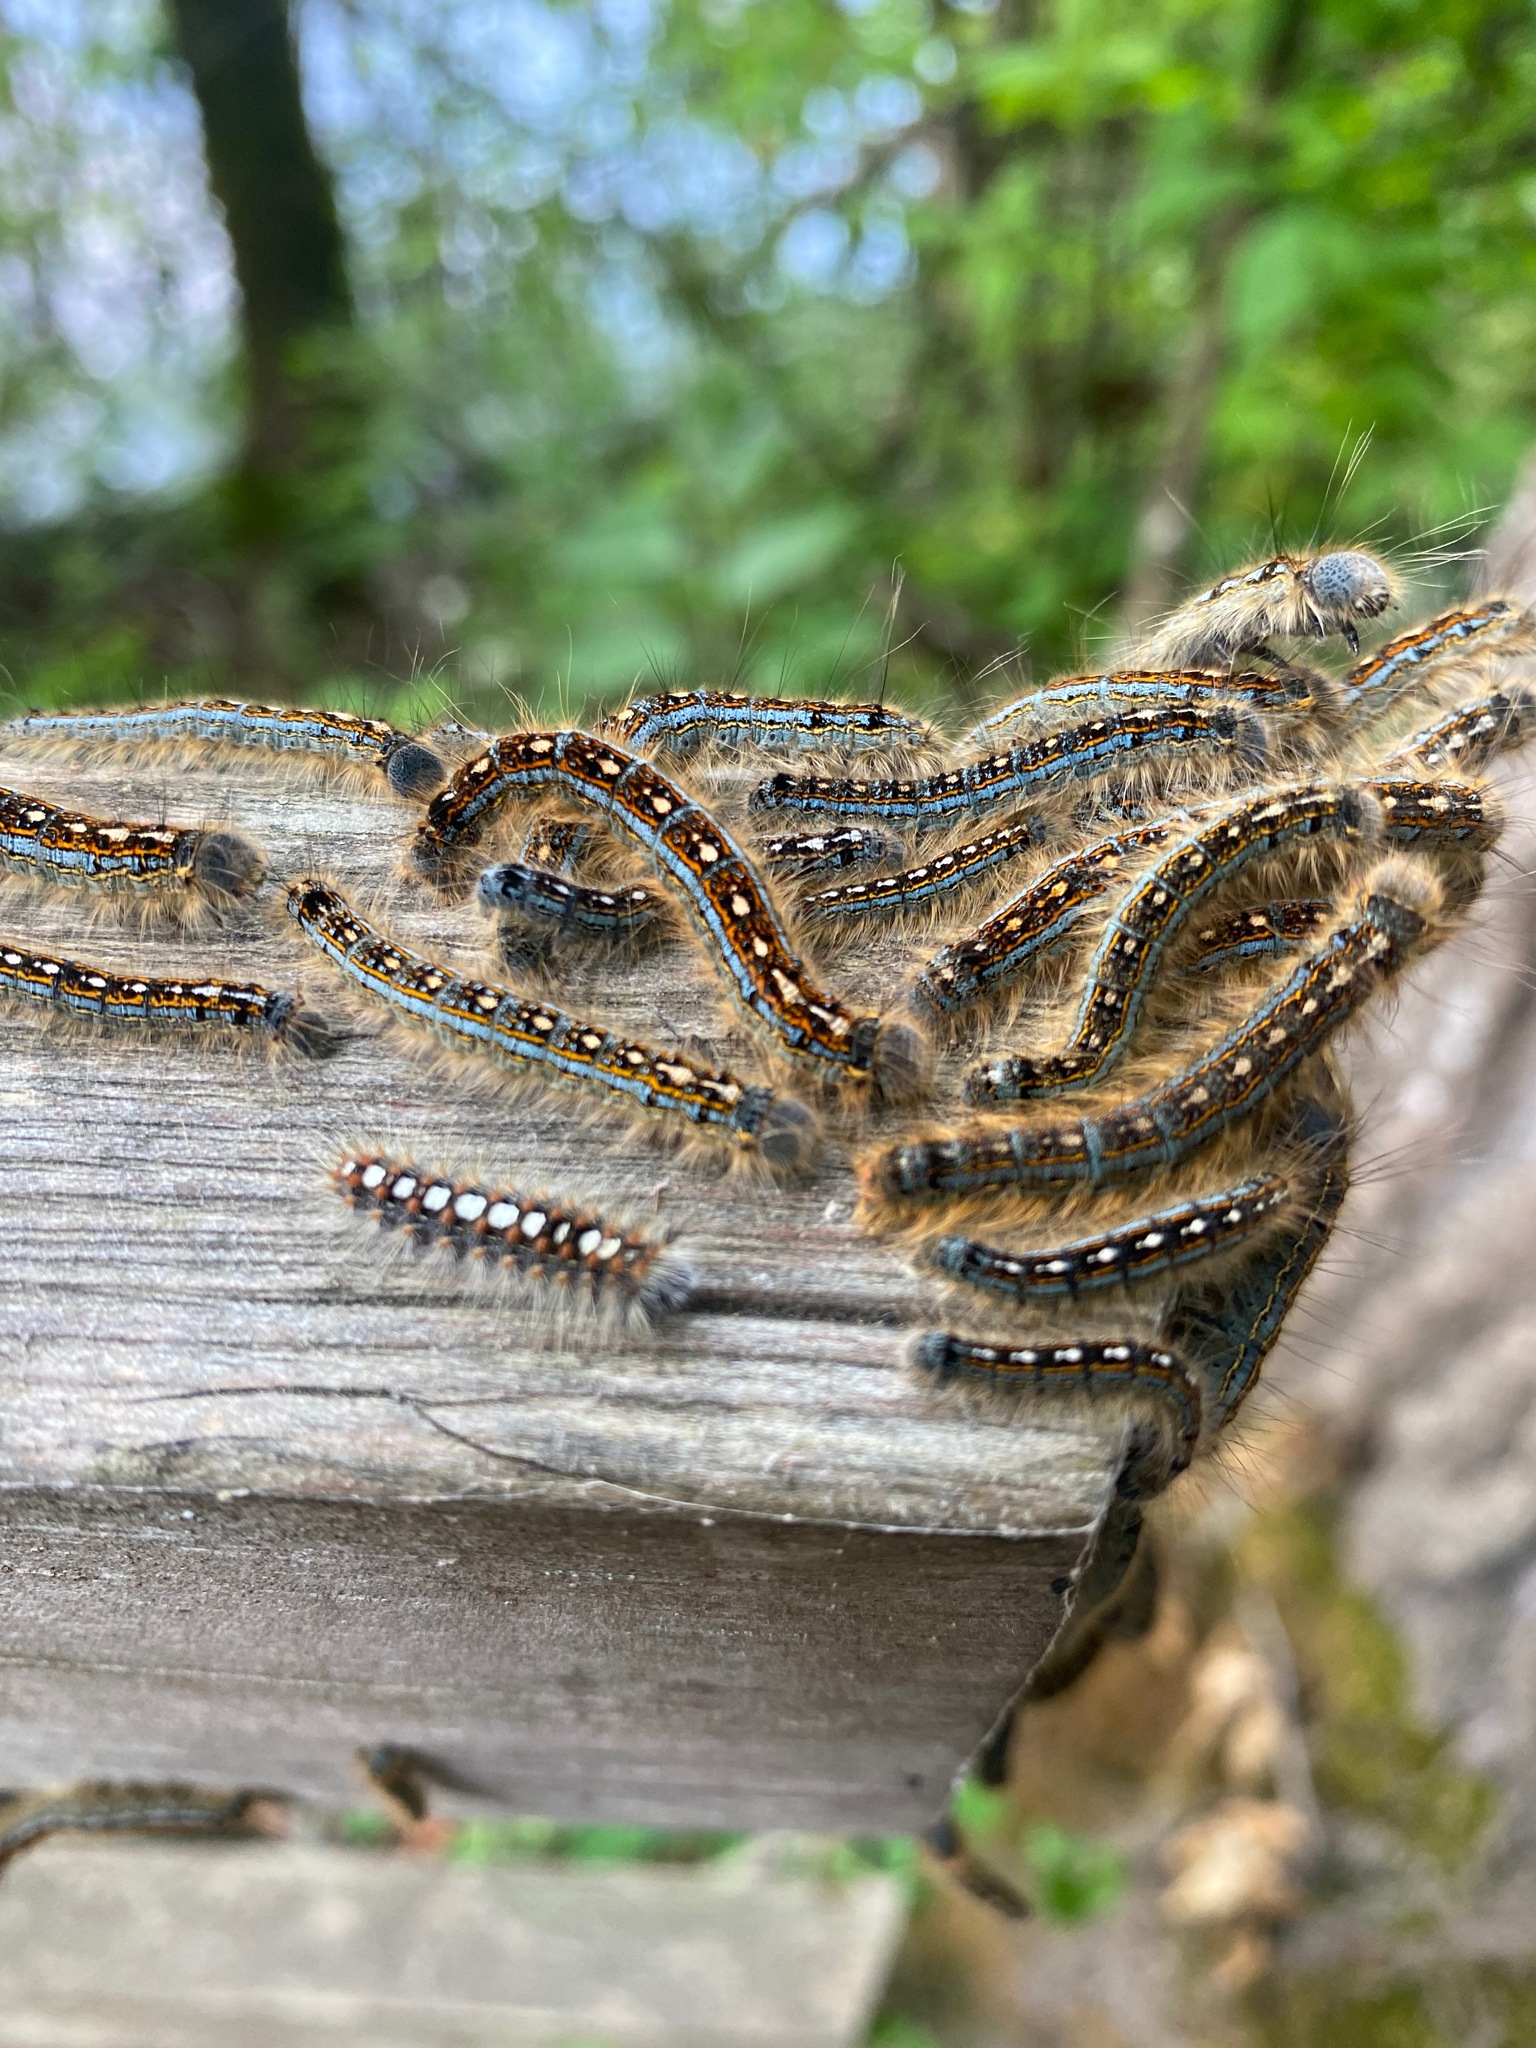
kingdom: Animalia
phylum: Arthropoda
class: Insecta
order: Lepidoptera
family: Lasiocampidae
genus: Malacosoma
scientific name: Malacosoma disstria
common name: Forest tent caterpillar
